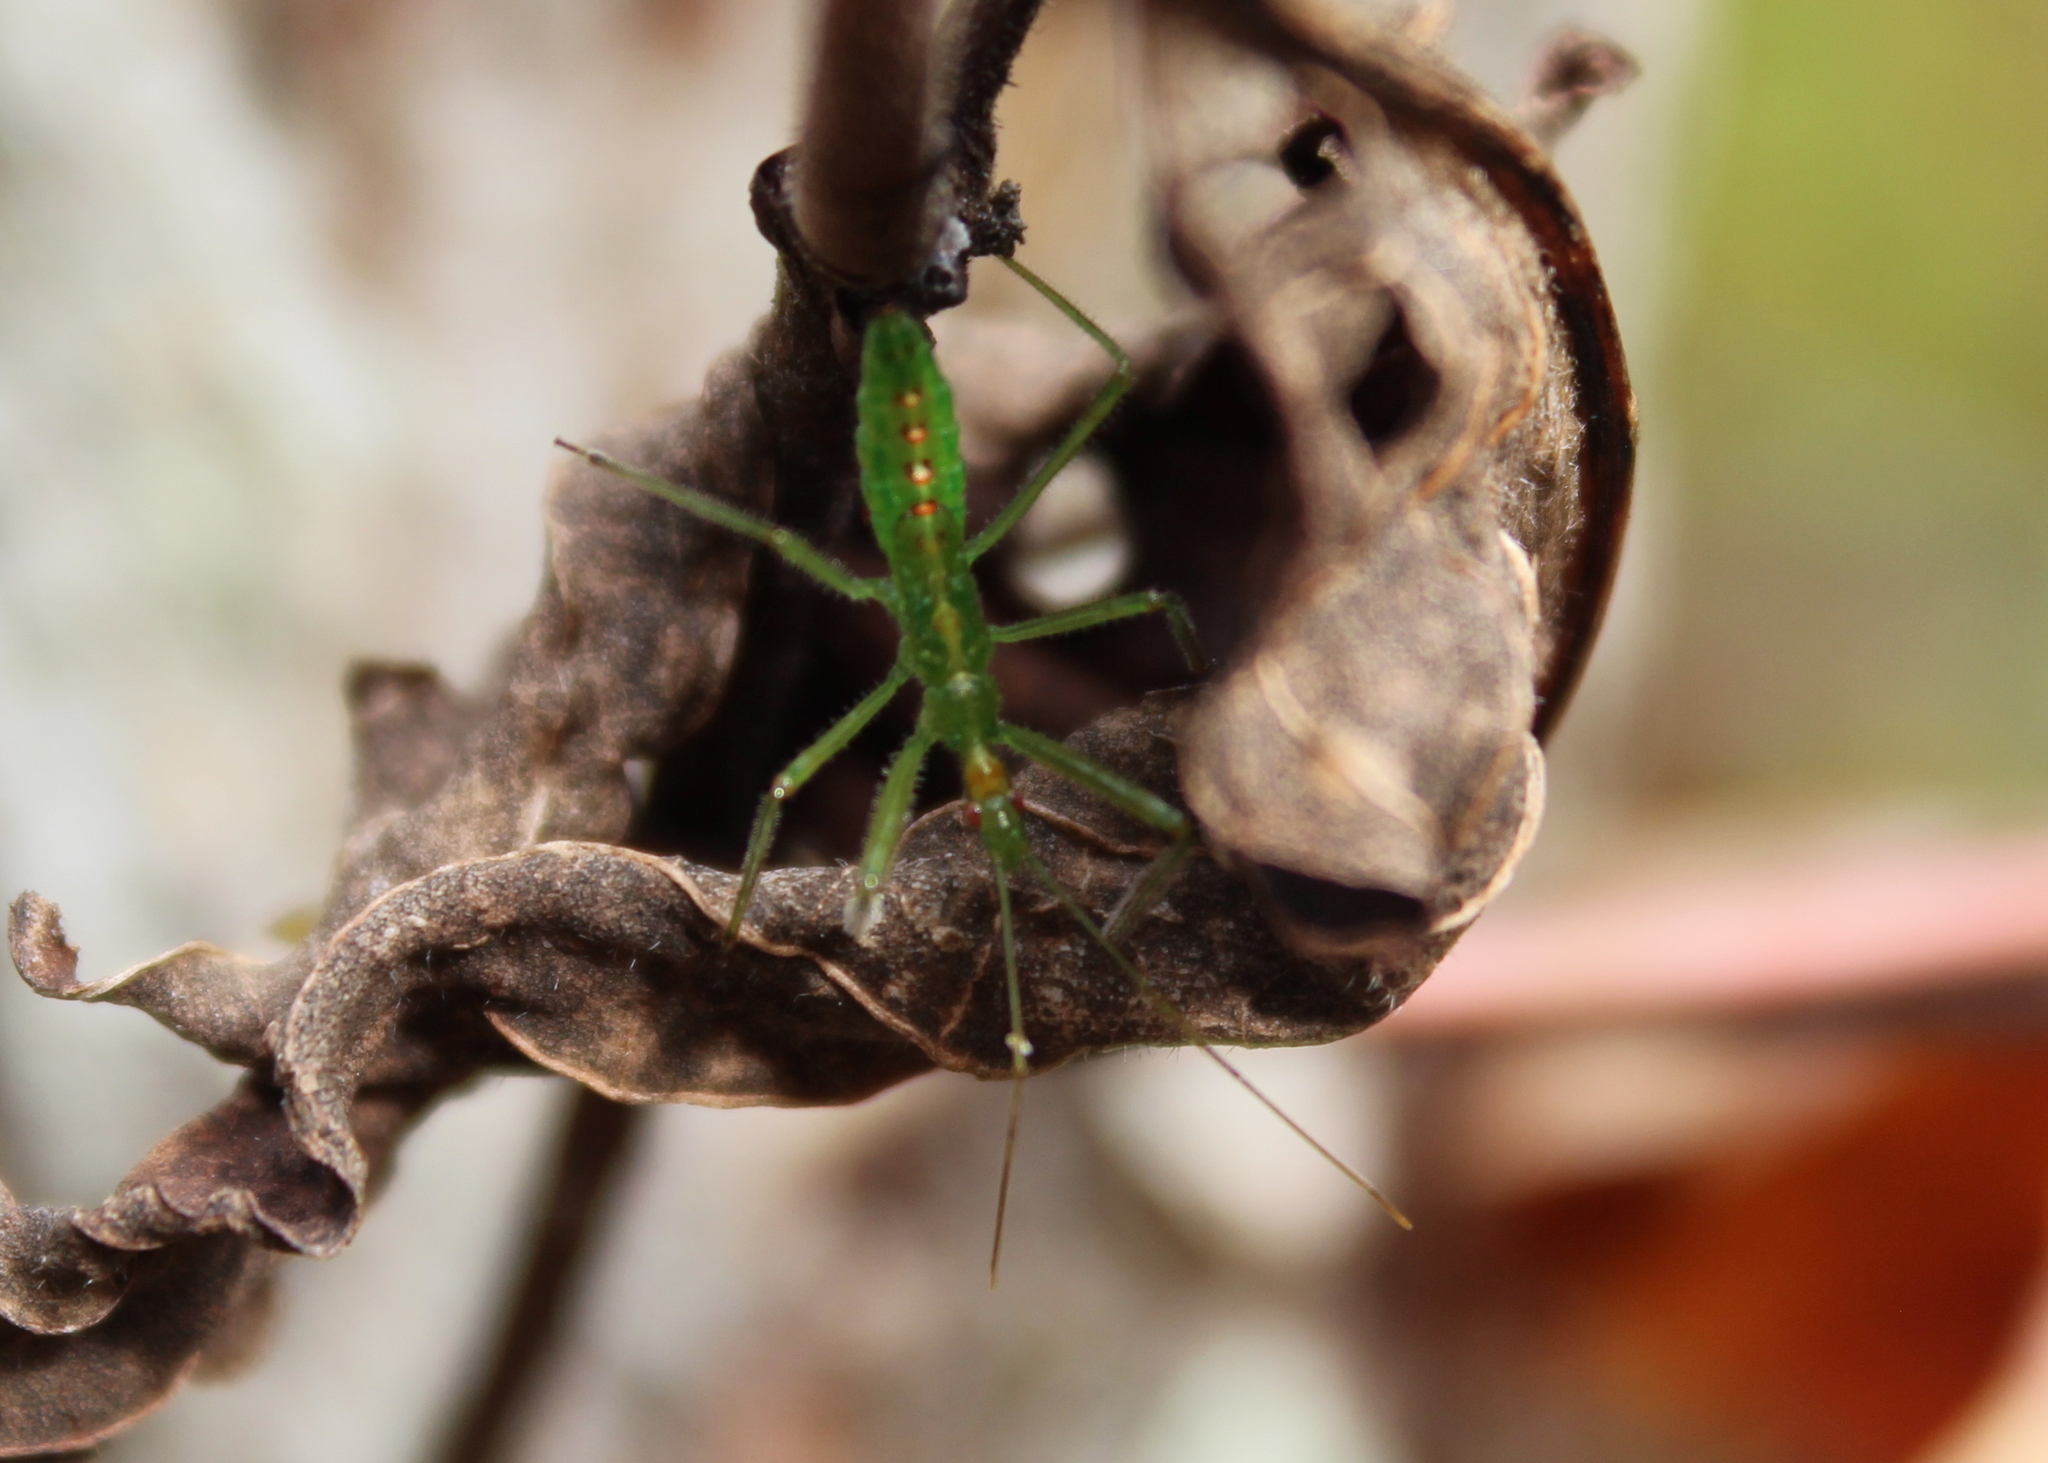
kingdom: Animalia
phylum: Arthropoda
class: Insecta
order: Hemiptera
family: Reduviidae
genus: Zelus
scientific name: Zelus luridus
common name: Pale green assassin bug
